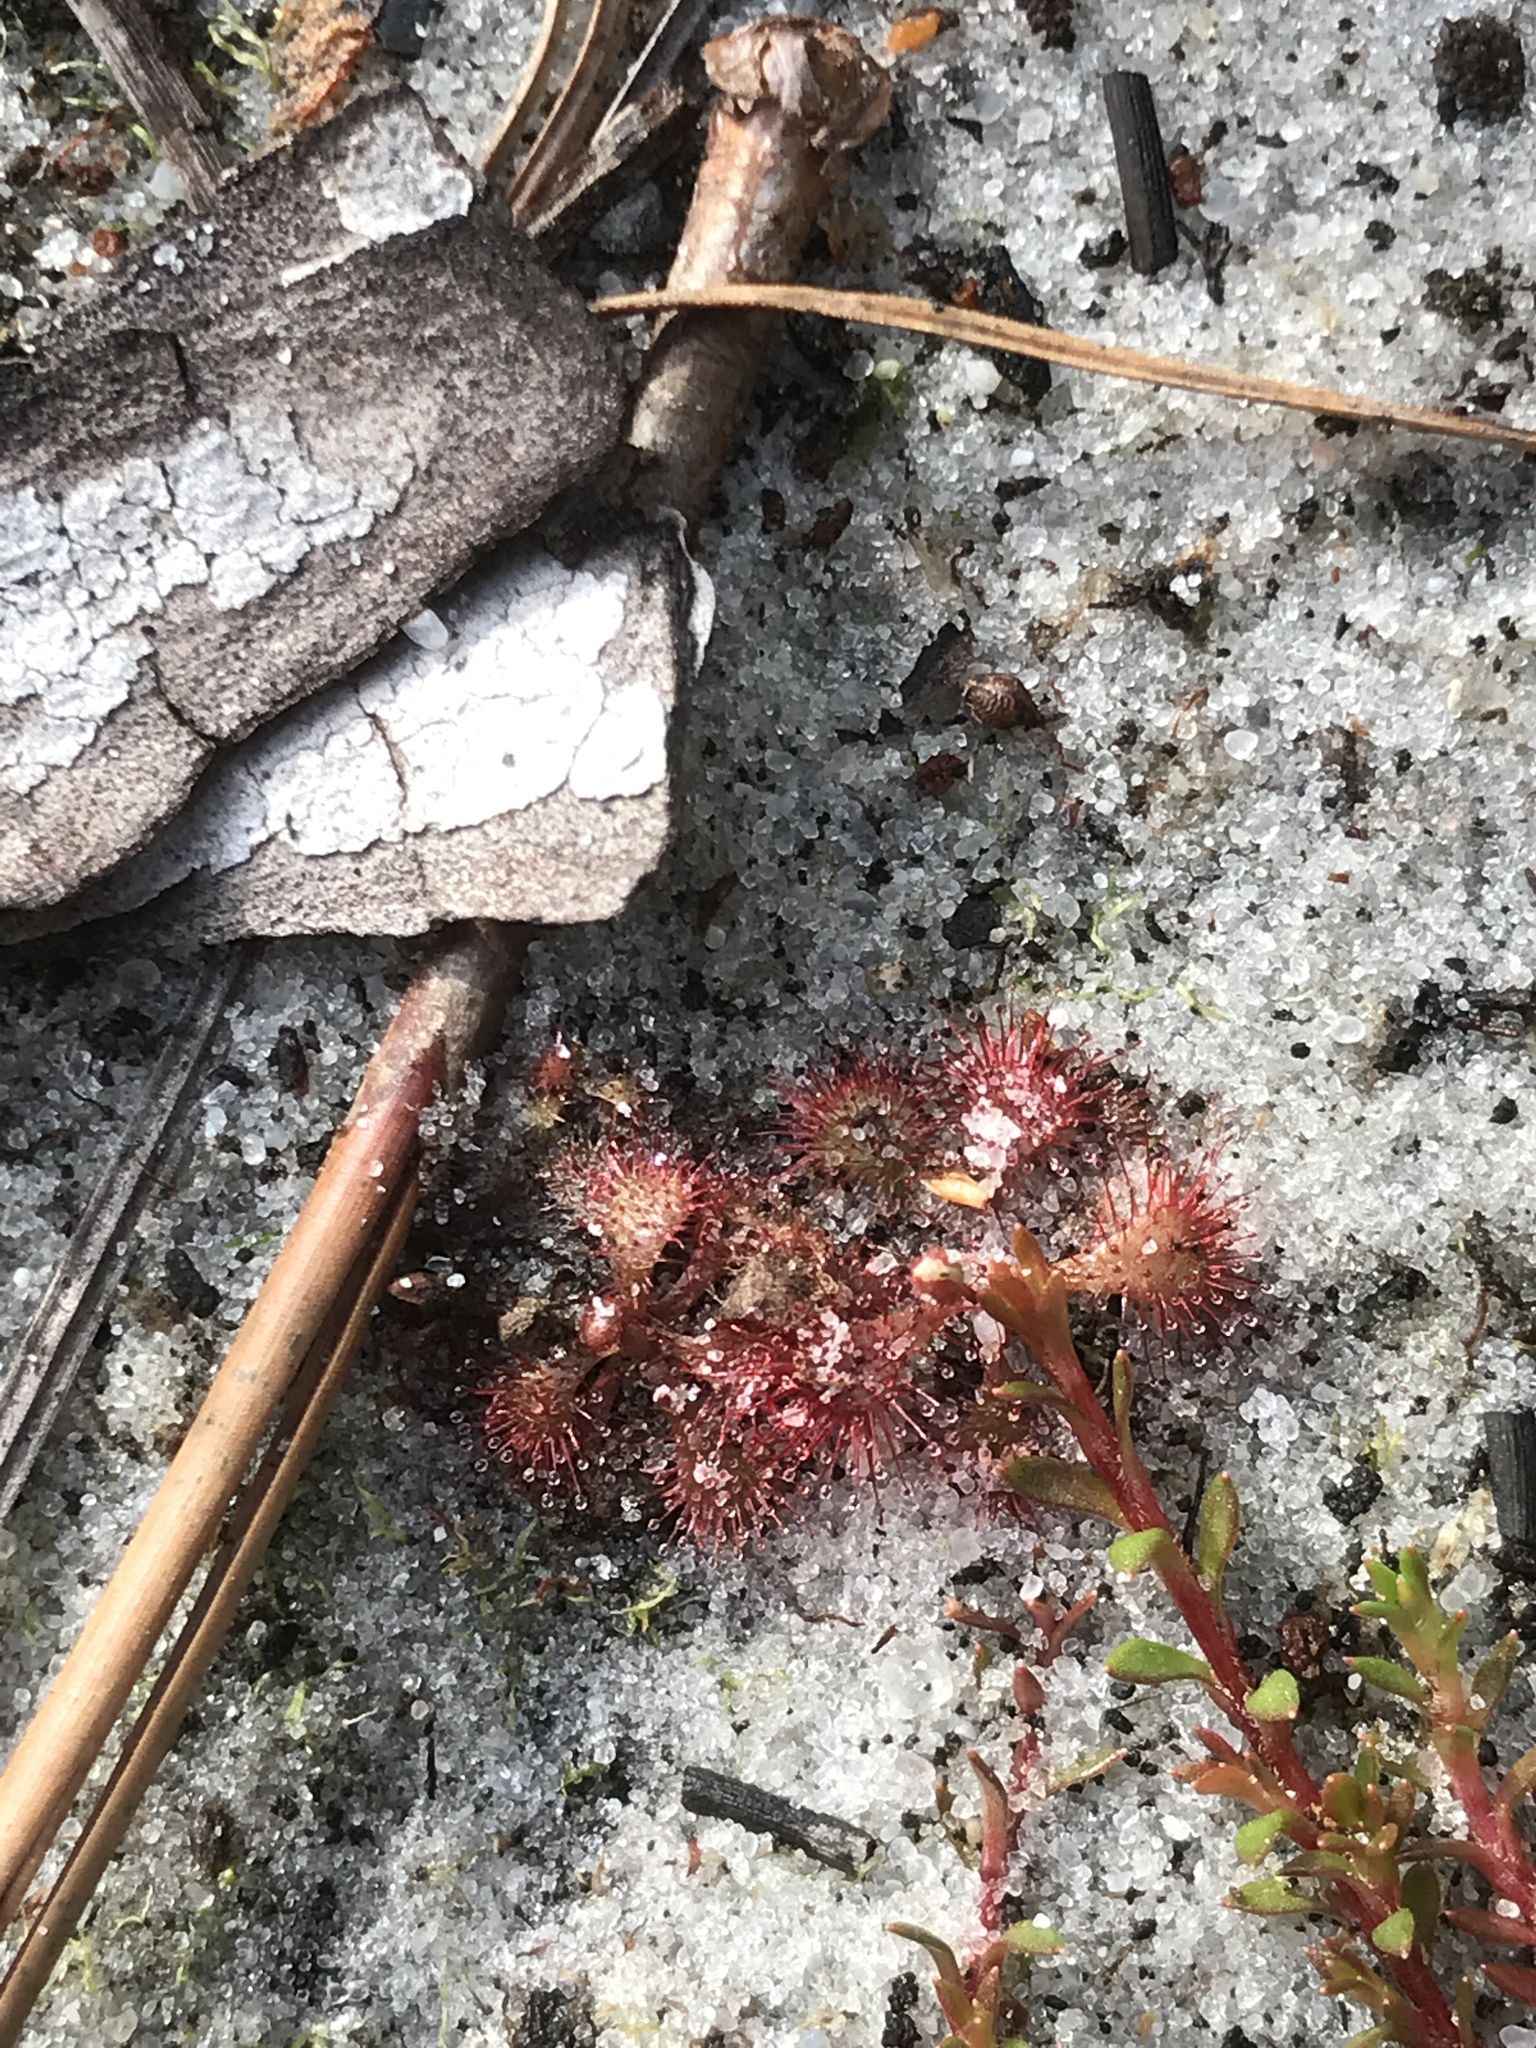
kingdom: Plantae
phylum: Tracheophyta
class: Magnoliopsida
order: Caryophyllales
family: Droseraceae
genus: Drosera
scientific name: Drosera brevifolia
